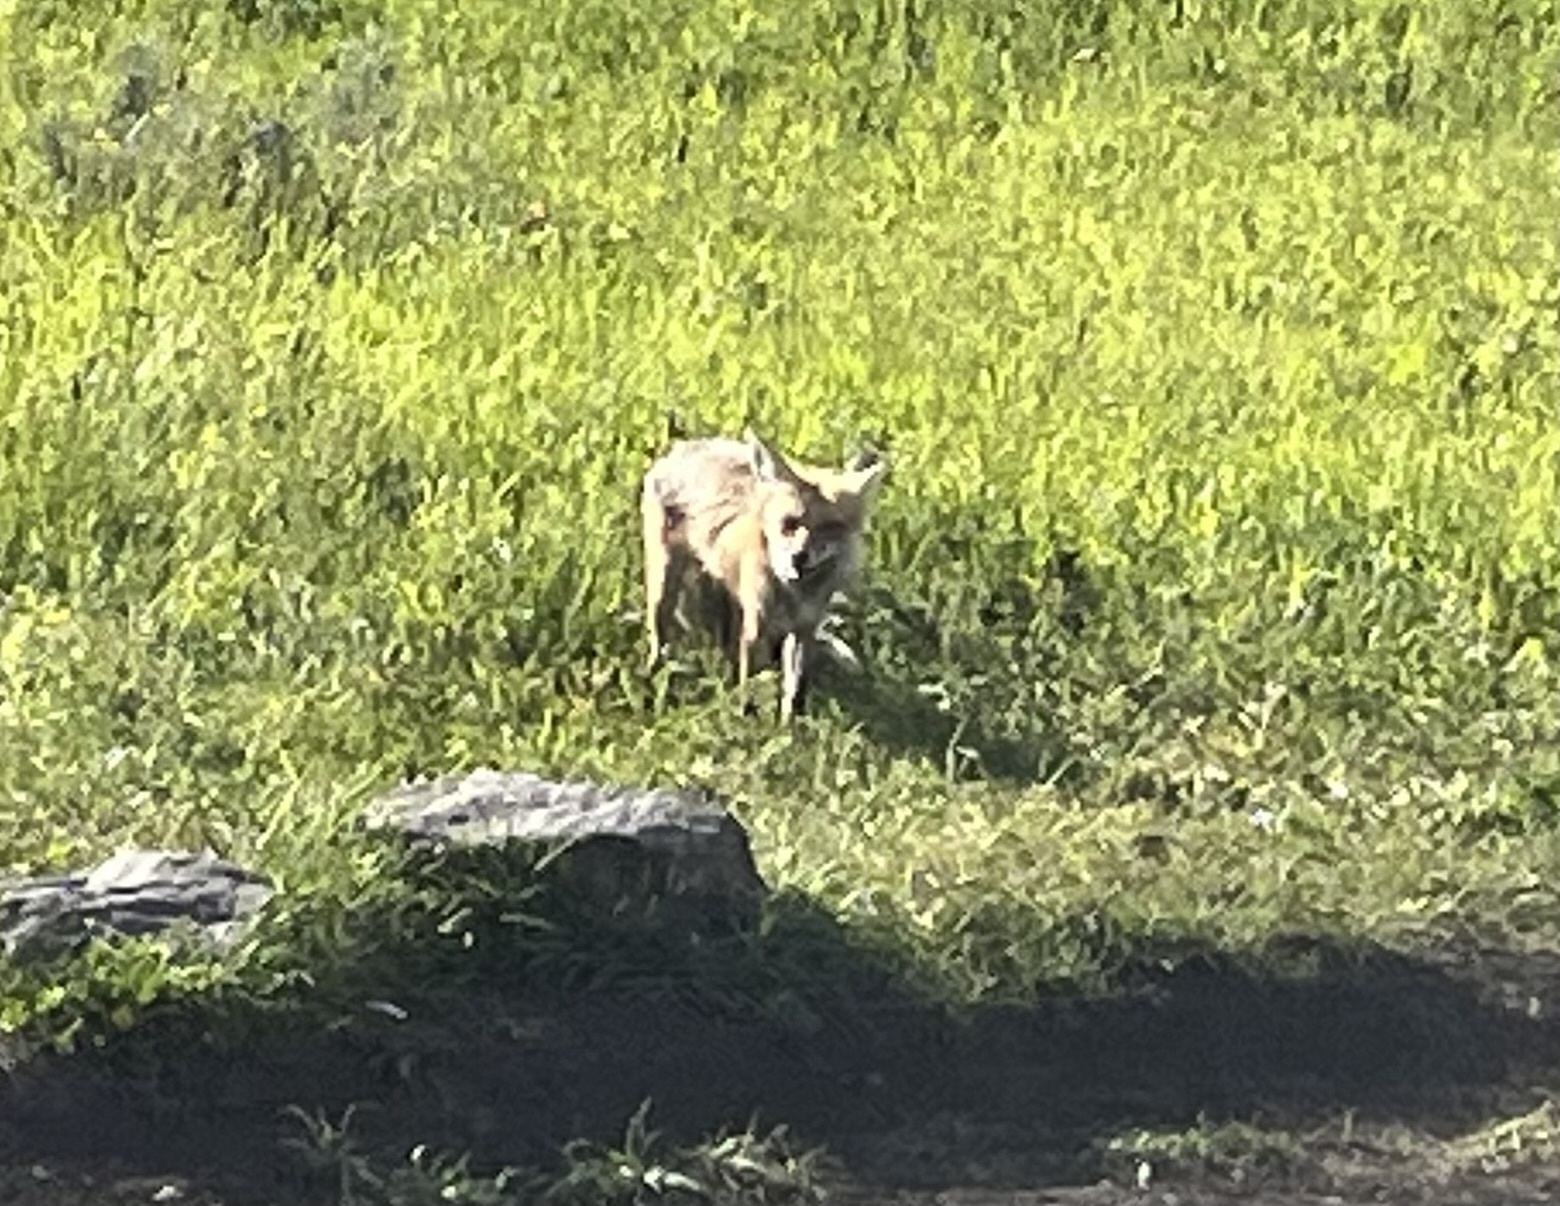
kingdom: Animalia
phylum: Chordata
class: Mammalia
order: Carnivora
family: Canidae
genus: Vulpes
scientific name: Vulpes vulpes
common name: Red fox
